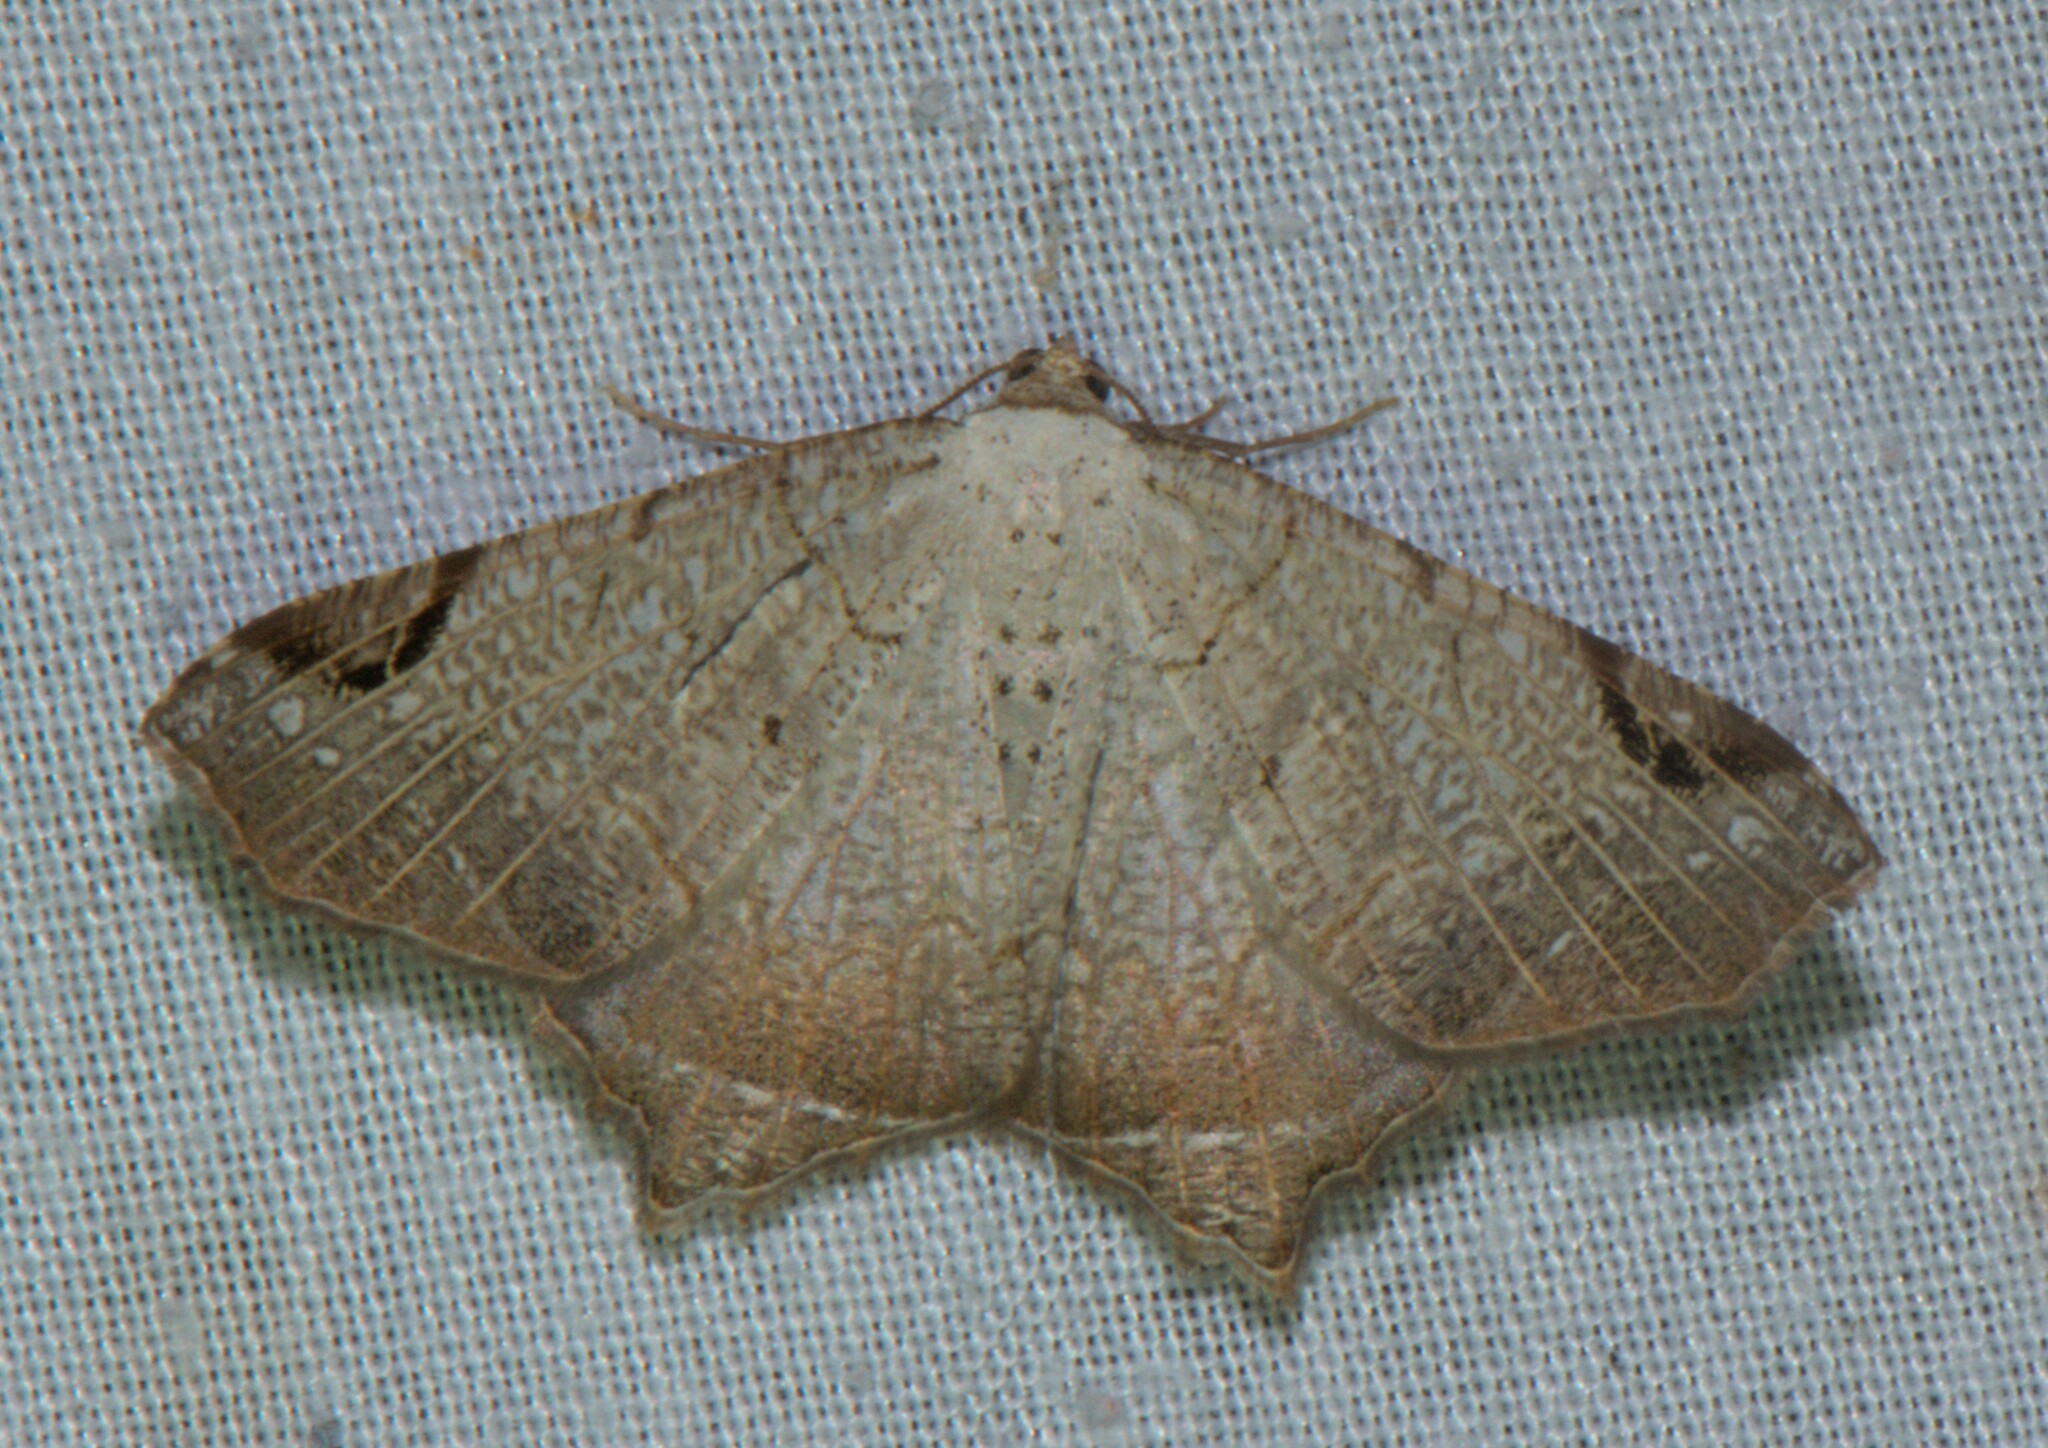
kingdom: Animalia
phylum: Arthropoda
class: Insecta
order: Lepidoptera
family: Geometridae
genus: Oxymacaria
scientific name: Oxymacaria penumbrata
